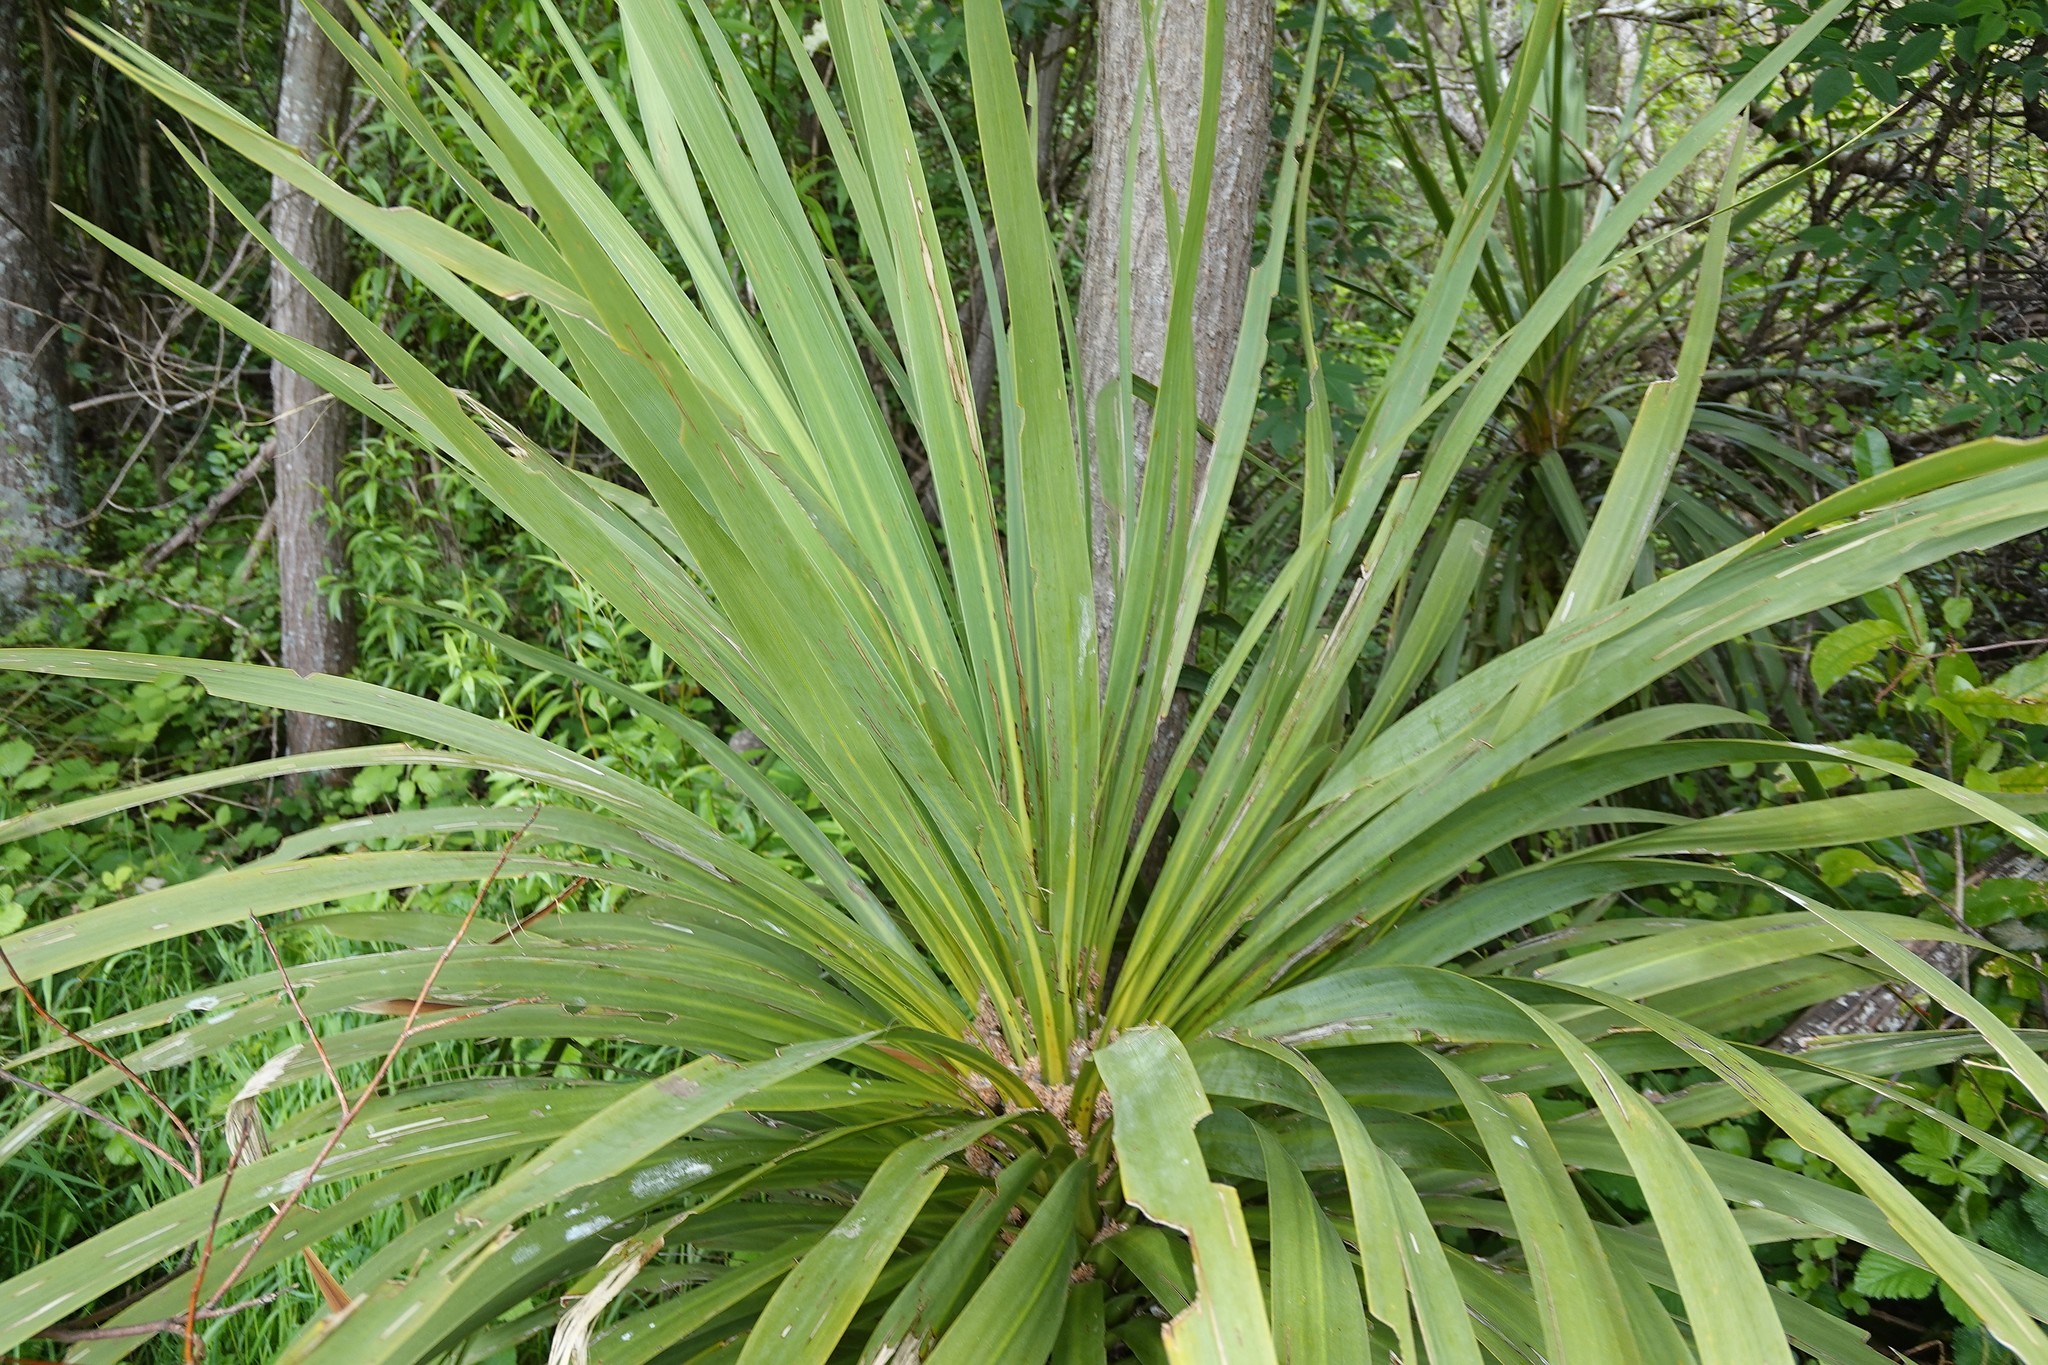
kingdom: Plantae
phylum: Tracheophyta
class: Liliopsida
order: Asparagales
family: Asparagaceae
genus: Cordyline
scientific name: Cordyline australis
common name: Cabbage-palm
